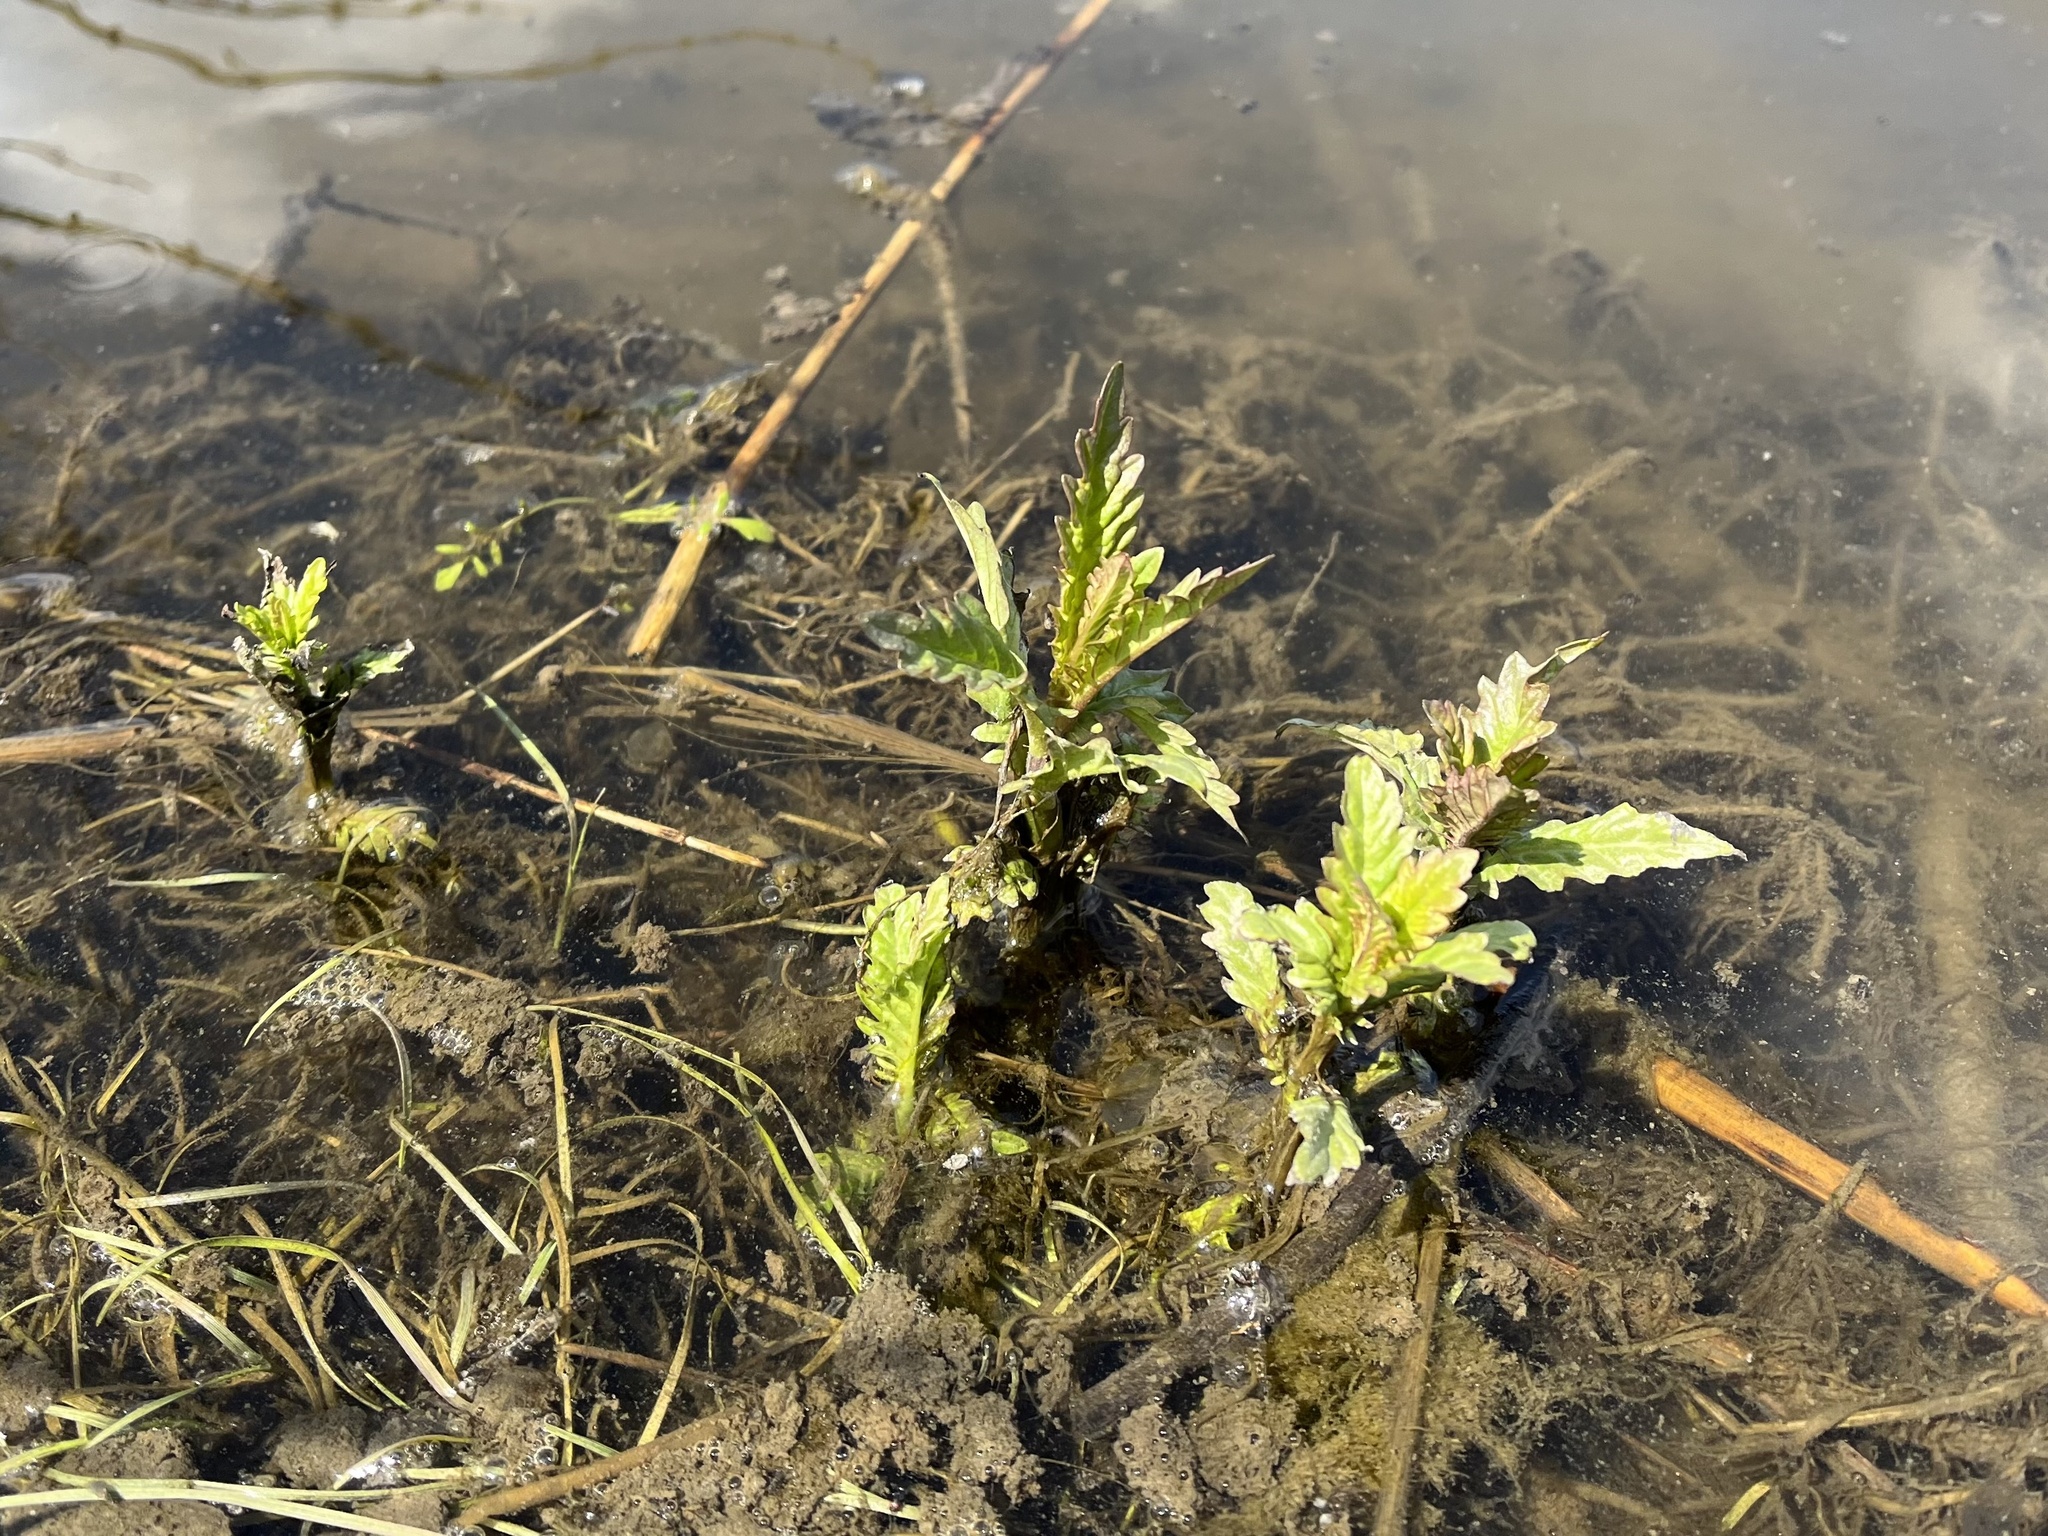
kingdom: Plantae
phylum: Tracheophyta
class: Magnoliopsida
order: Lamiales
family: Lamiaceae
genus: Lycopus
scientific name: Lycopus europaeus
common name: European bugleweed
